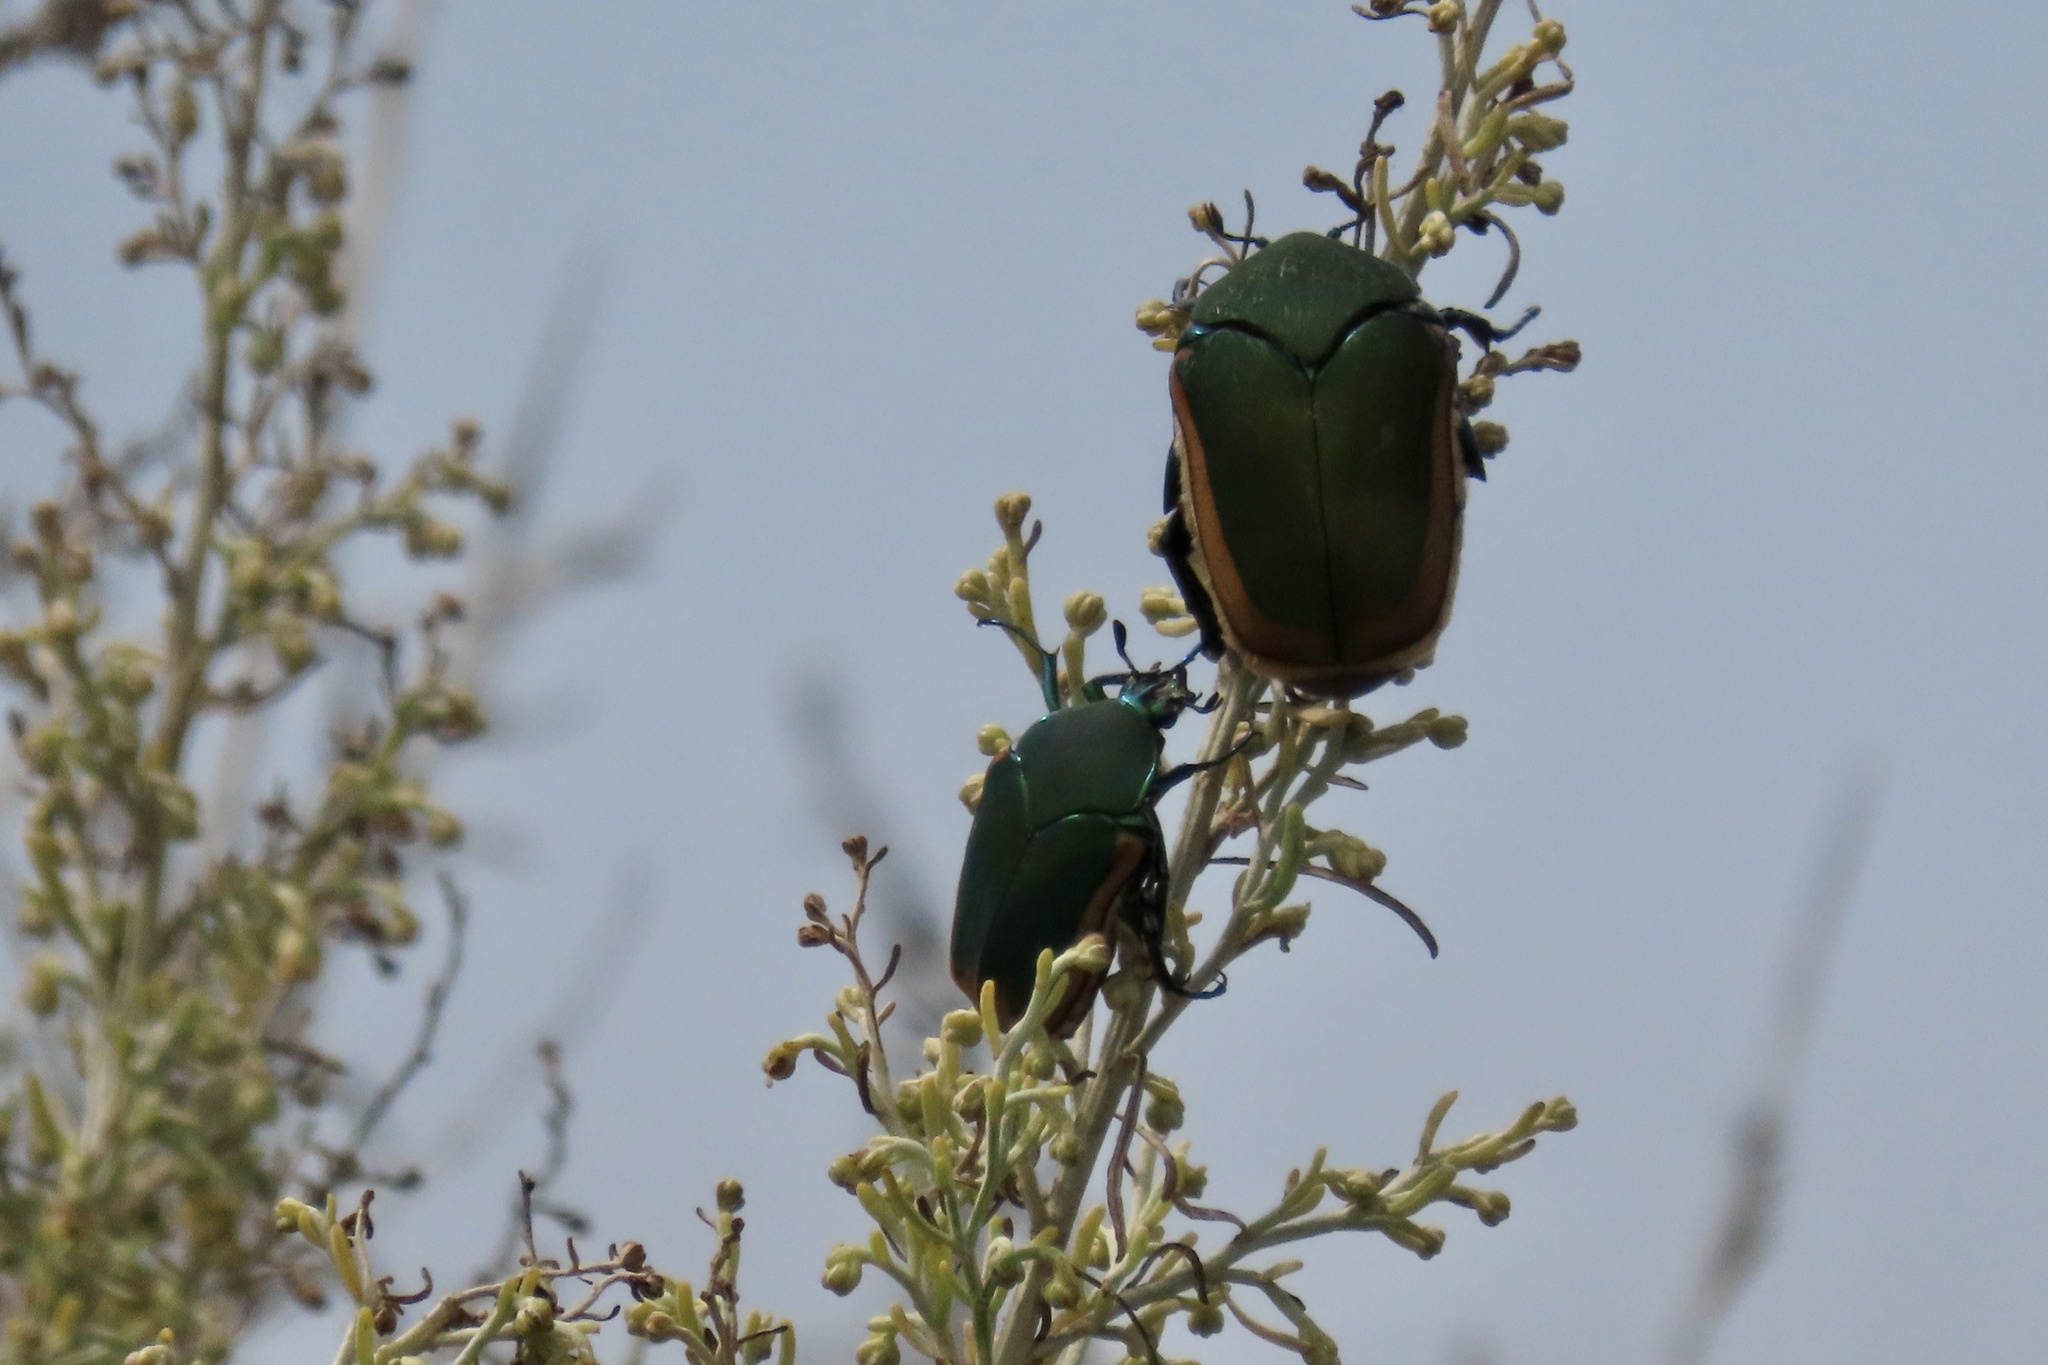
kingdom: Animalia
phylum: Arthropoda
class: Insecta
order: Coleoptera
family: Scarabaeidae
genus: Cotinis
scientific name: Cotinis mutabilis
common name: Figeater beetle
